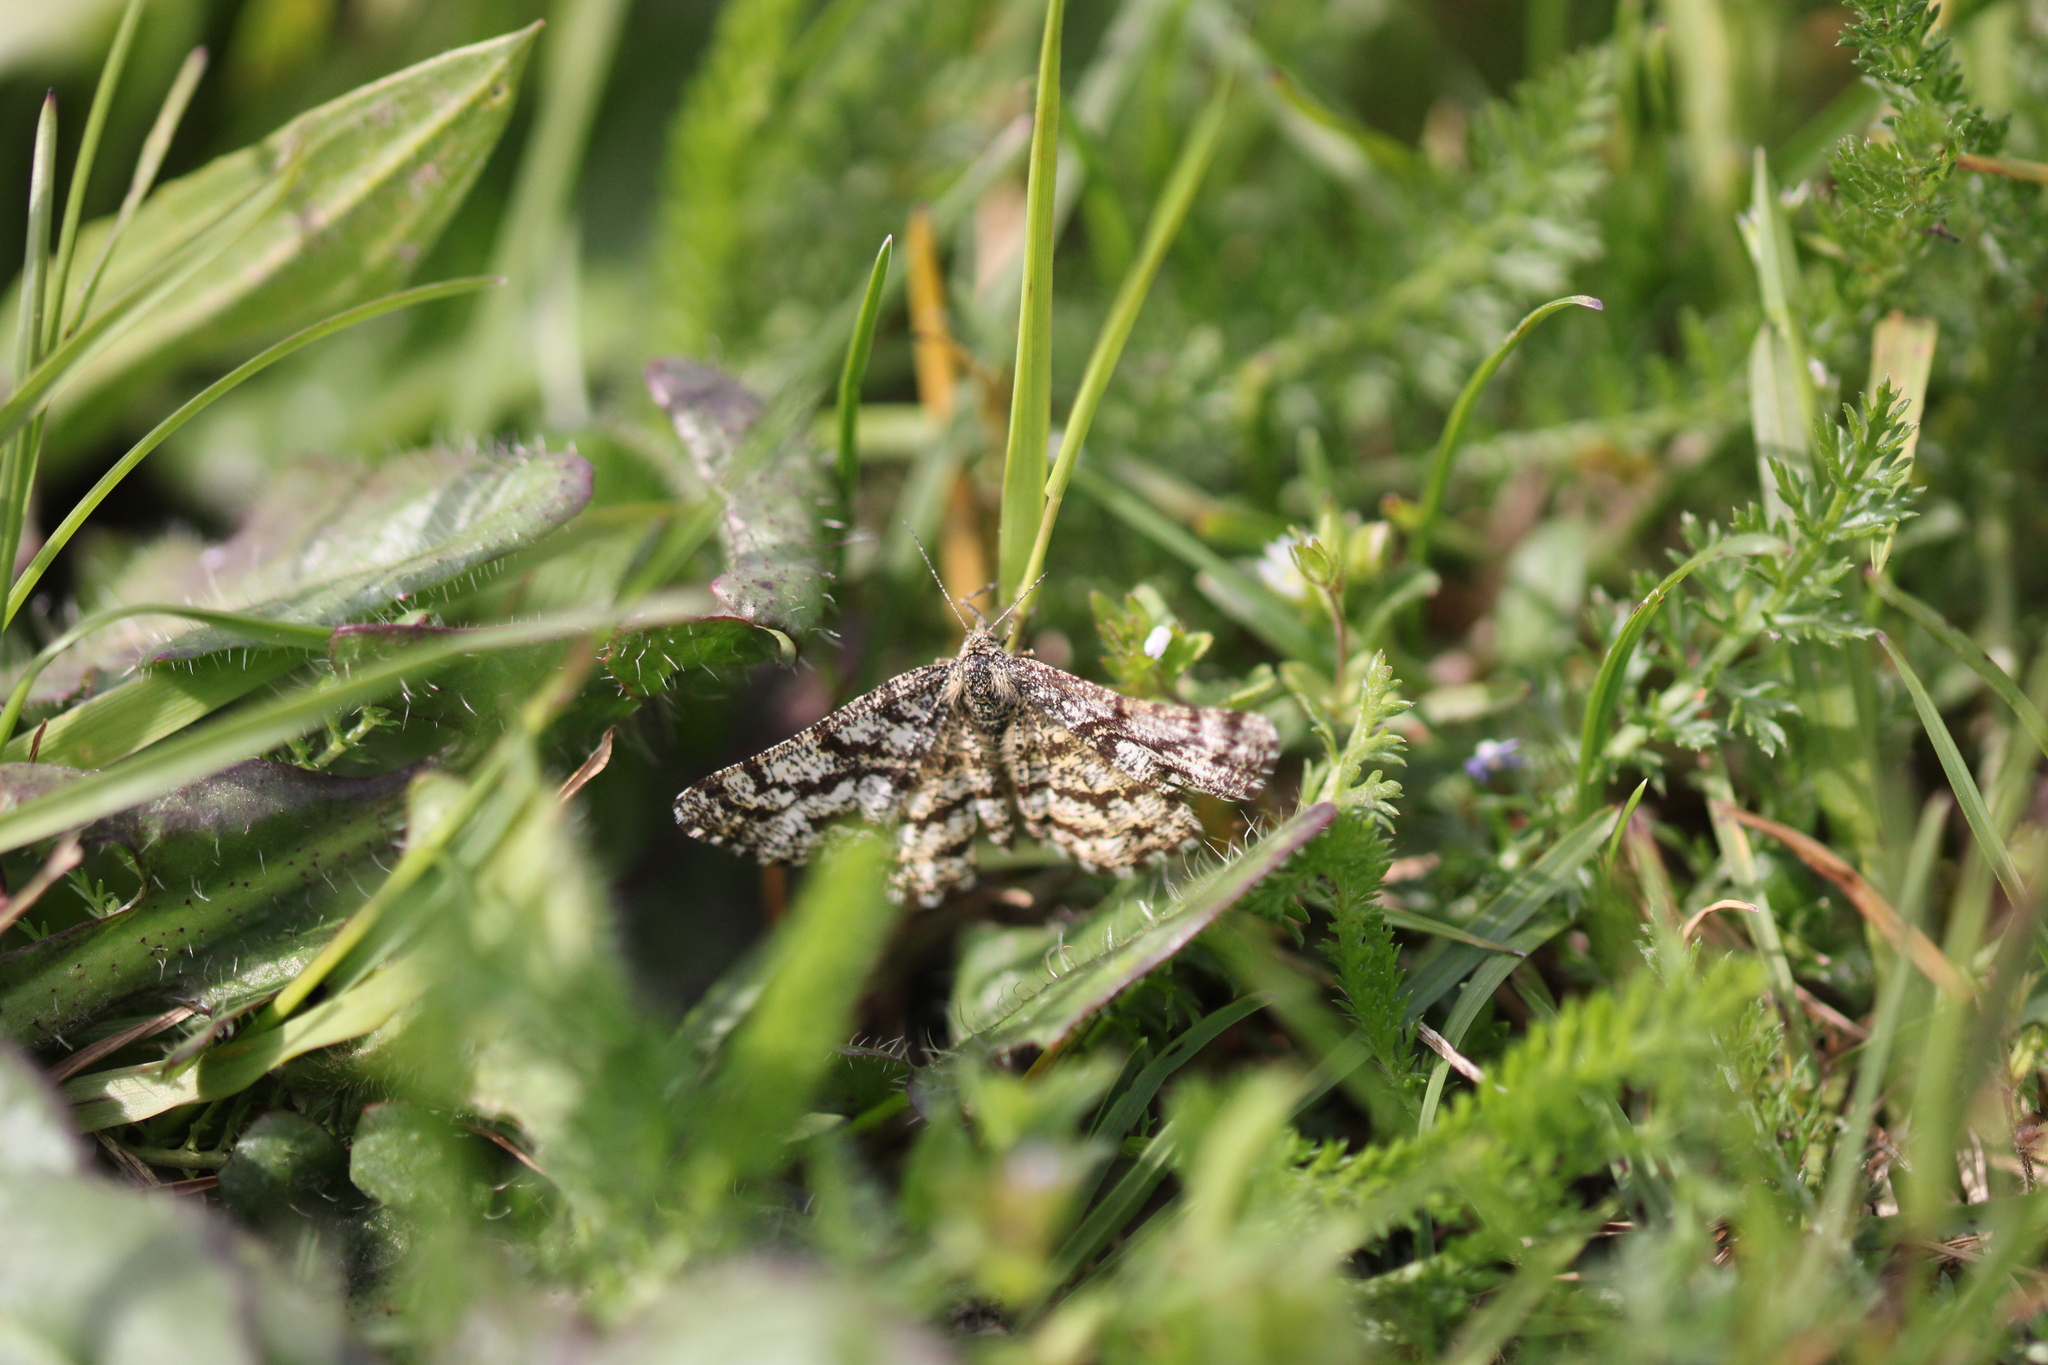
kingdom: Animalia
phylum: Arthropoda
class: Insecta
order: Lepidoptera
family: Geometridae
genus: Ematurga
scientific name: Ematurga atomaria
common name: Common heath
